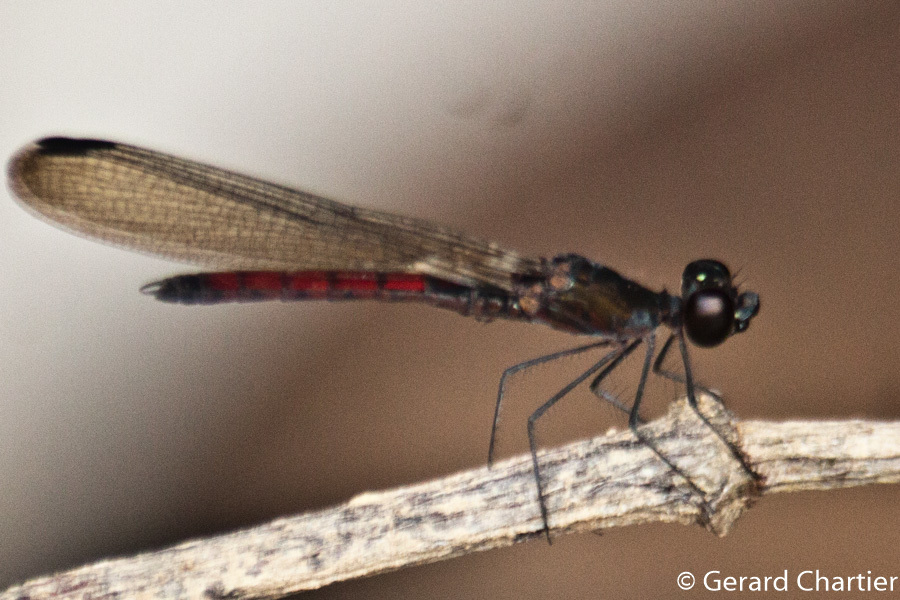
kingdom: Animalia
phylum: Arthropoda
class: Insecta
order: Odonata
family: Chlorocyphidae
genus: Libellago
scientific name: Libellago hyalina
